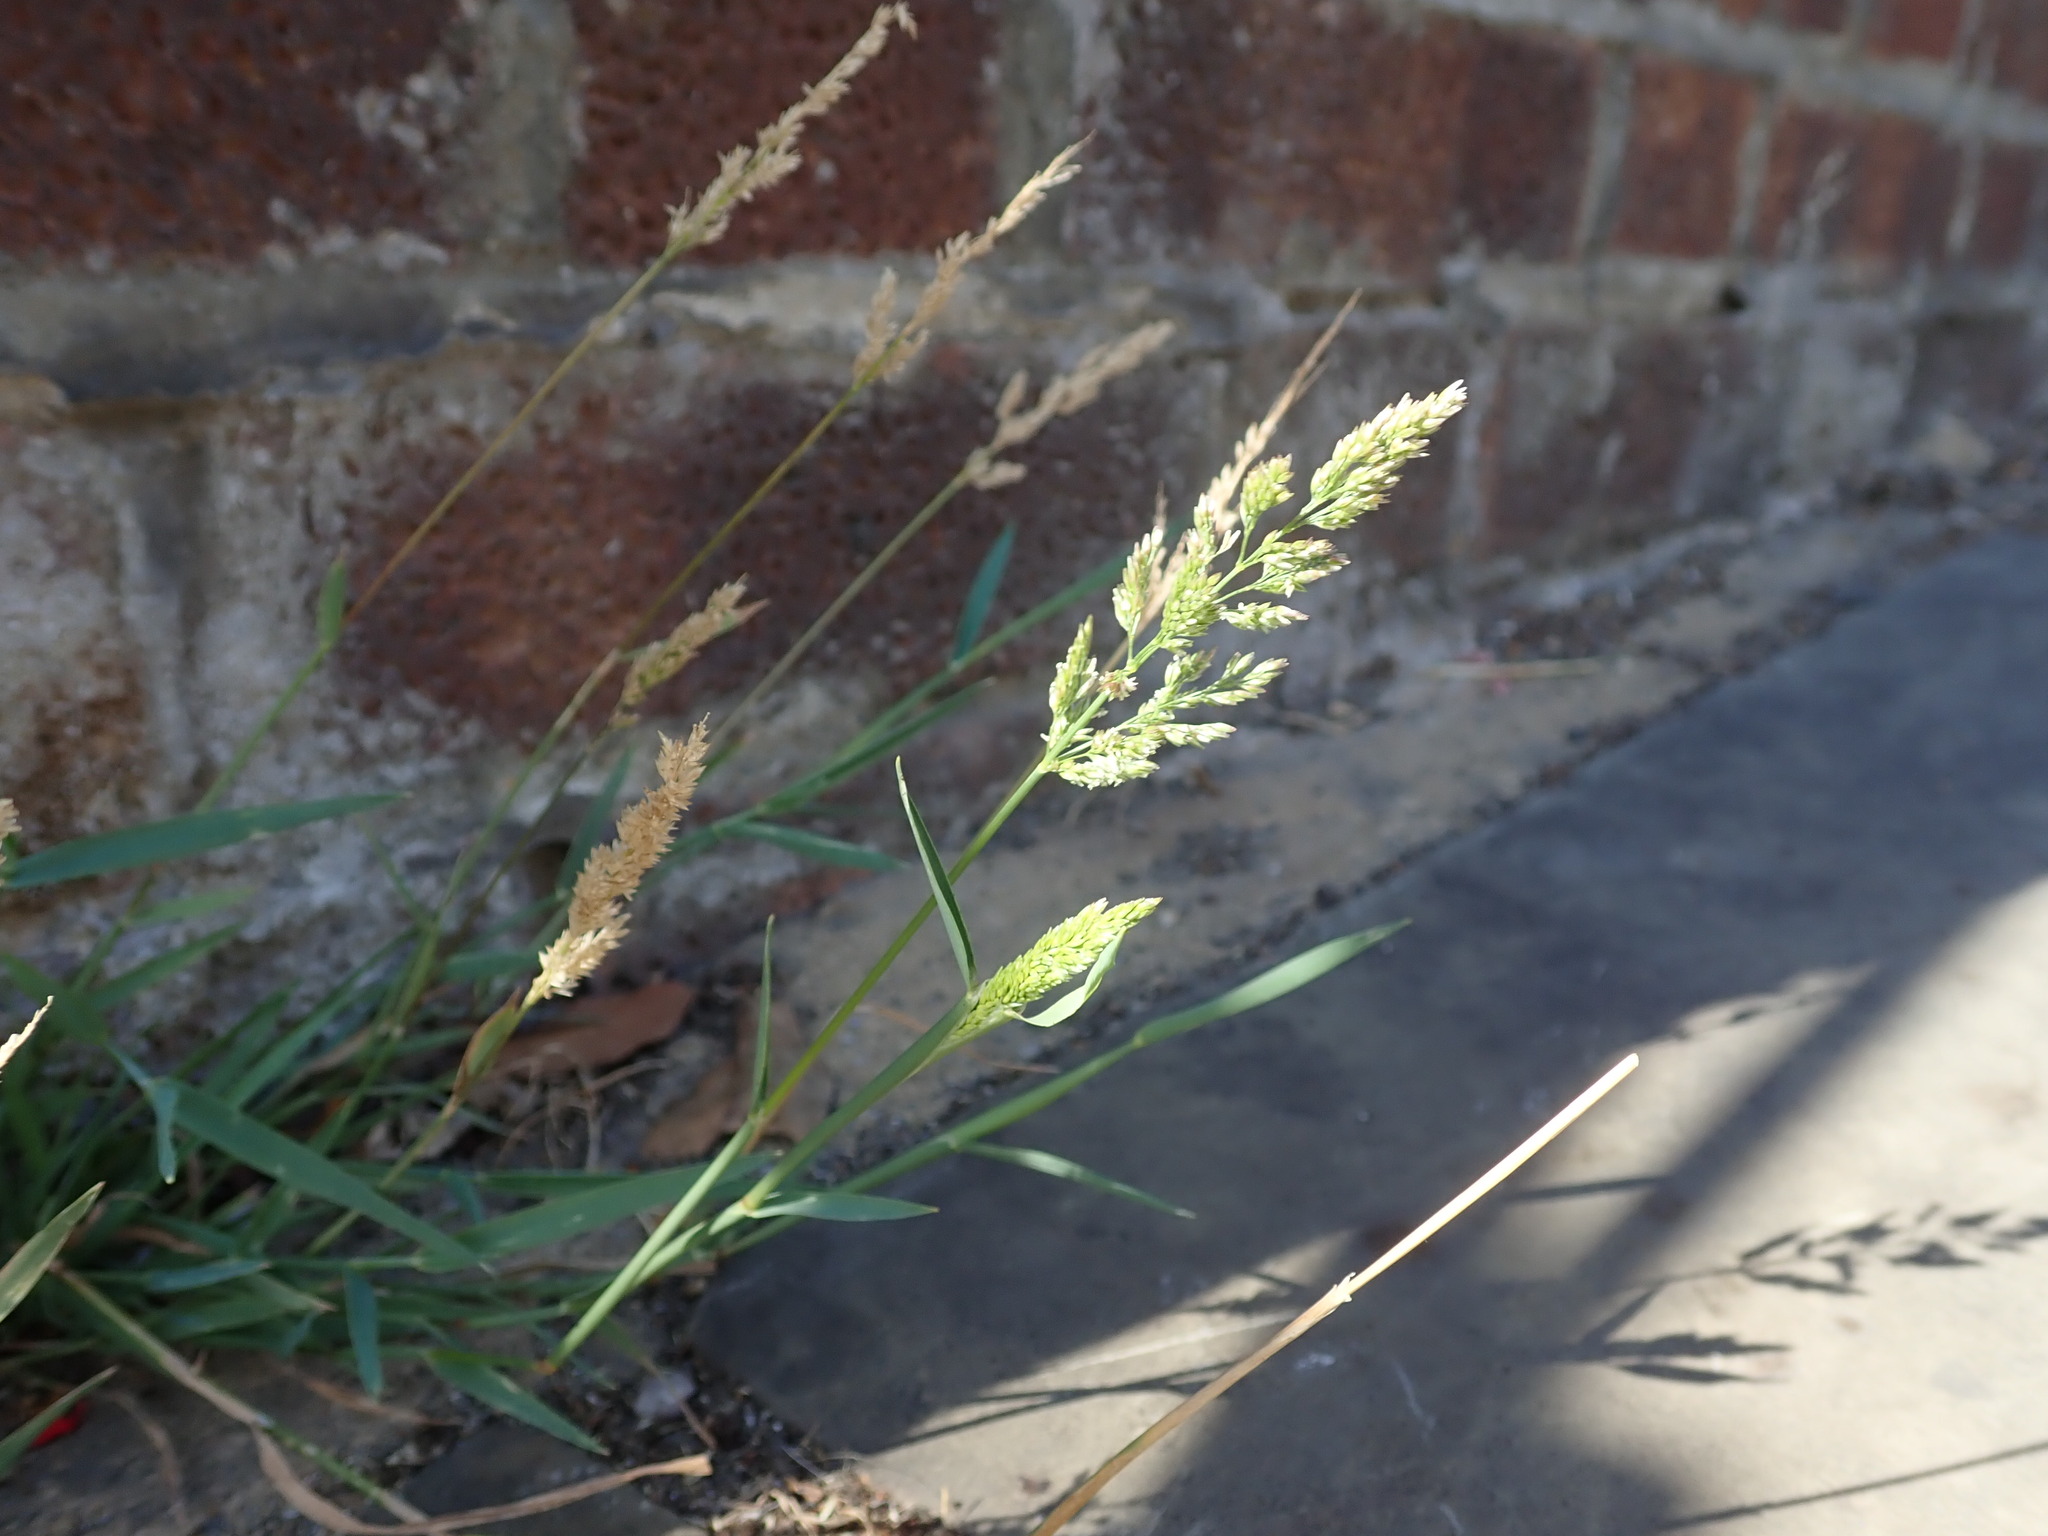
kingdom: Plantae
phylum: Tracheophyta
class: Liliopsida
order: Poales
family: Poaceae
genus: Polypogon
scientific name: Polypogon viridis
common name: Water bent
